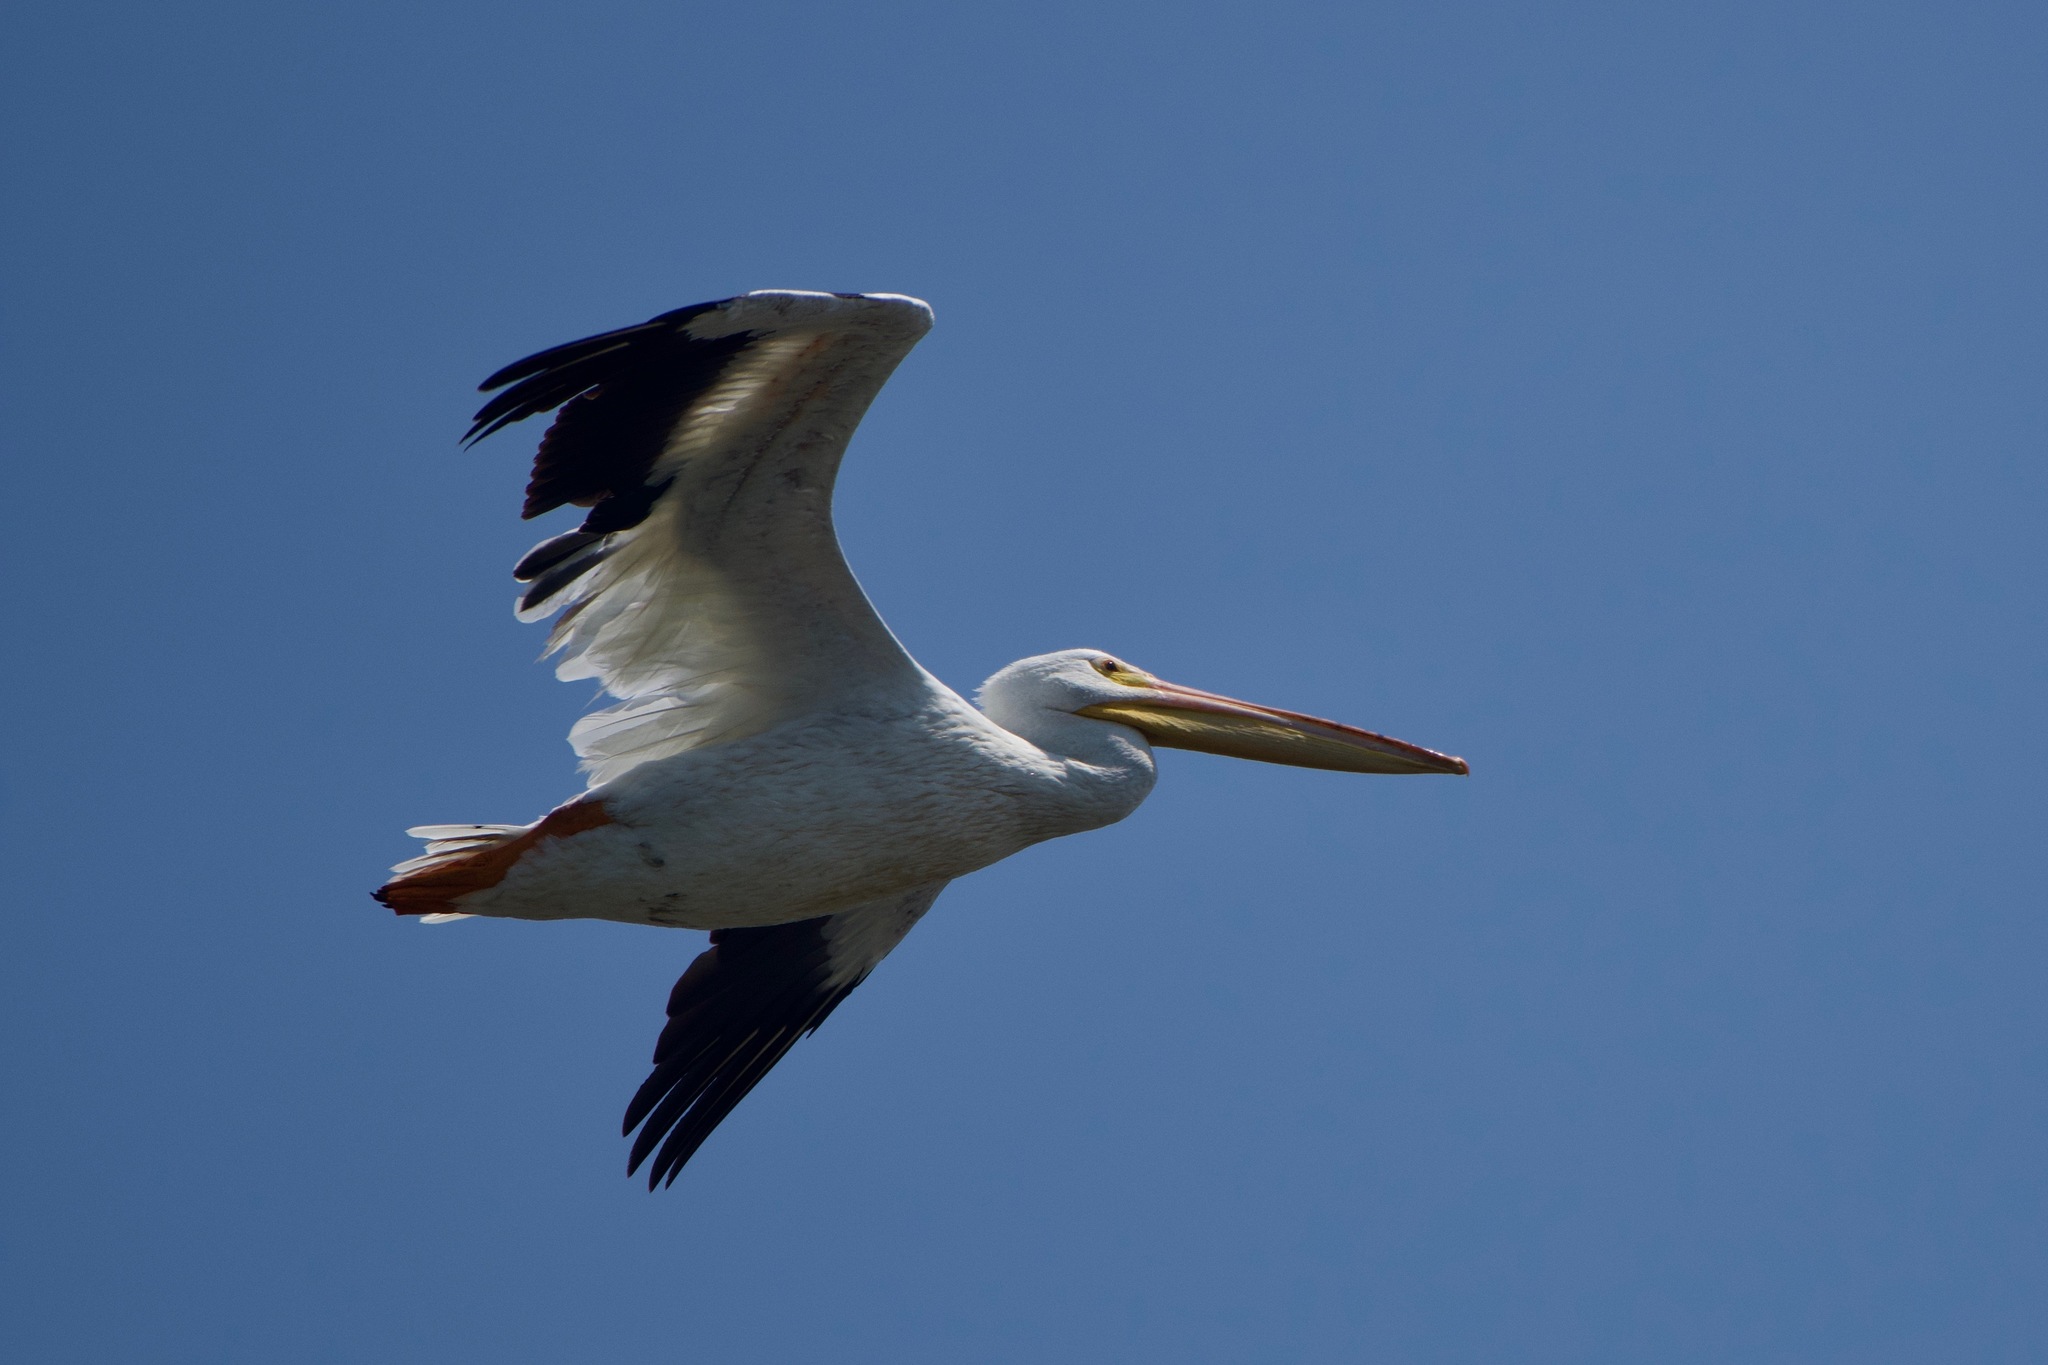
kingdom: Animalia
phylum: Chordata
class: Aves
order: Pelecaniformes
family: Pelecanidae
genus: Pelecanus
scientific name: Pelecanus erythrorhynchos
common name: American white pelican
